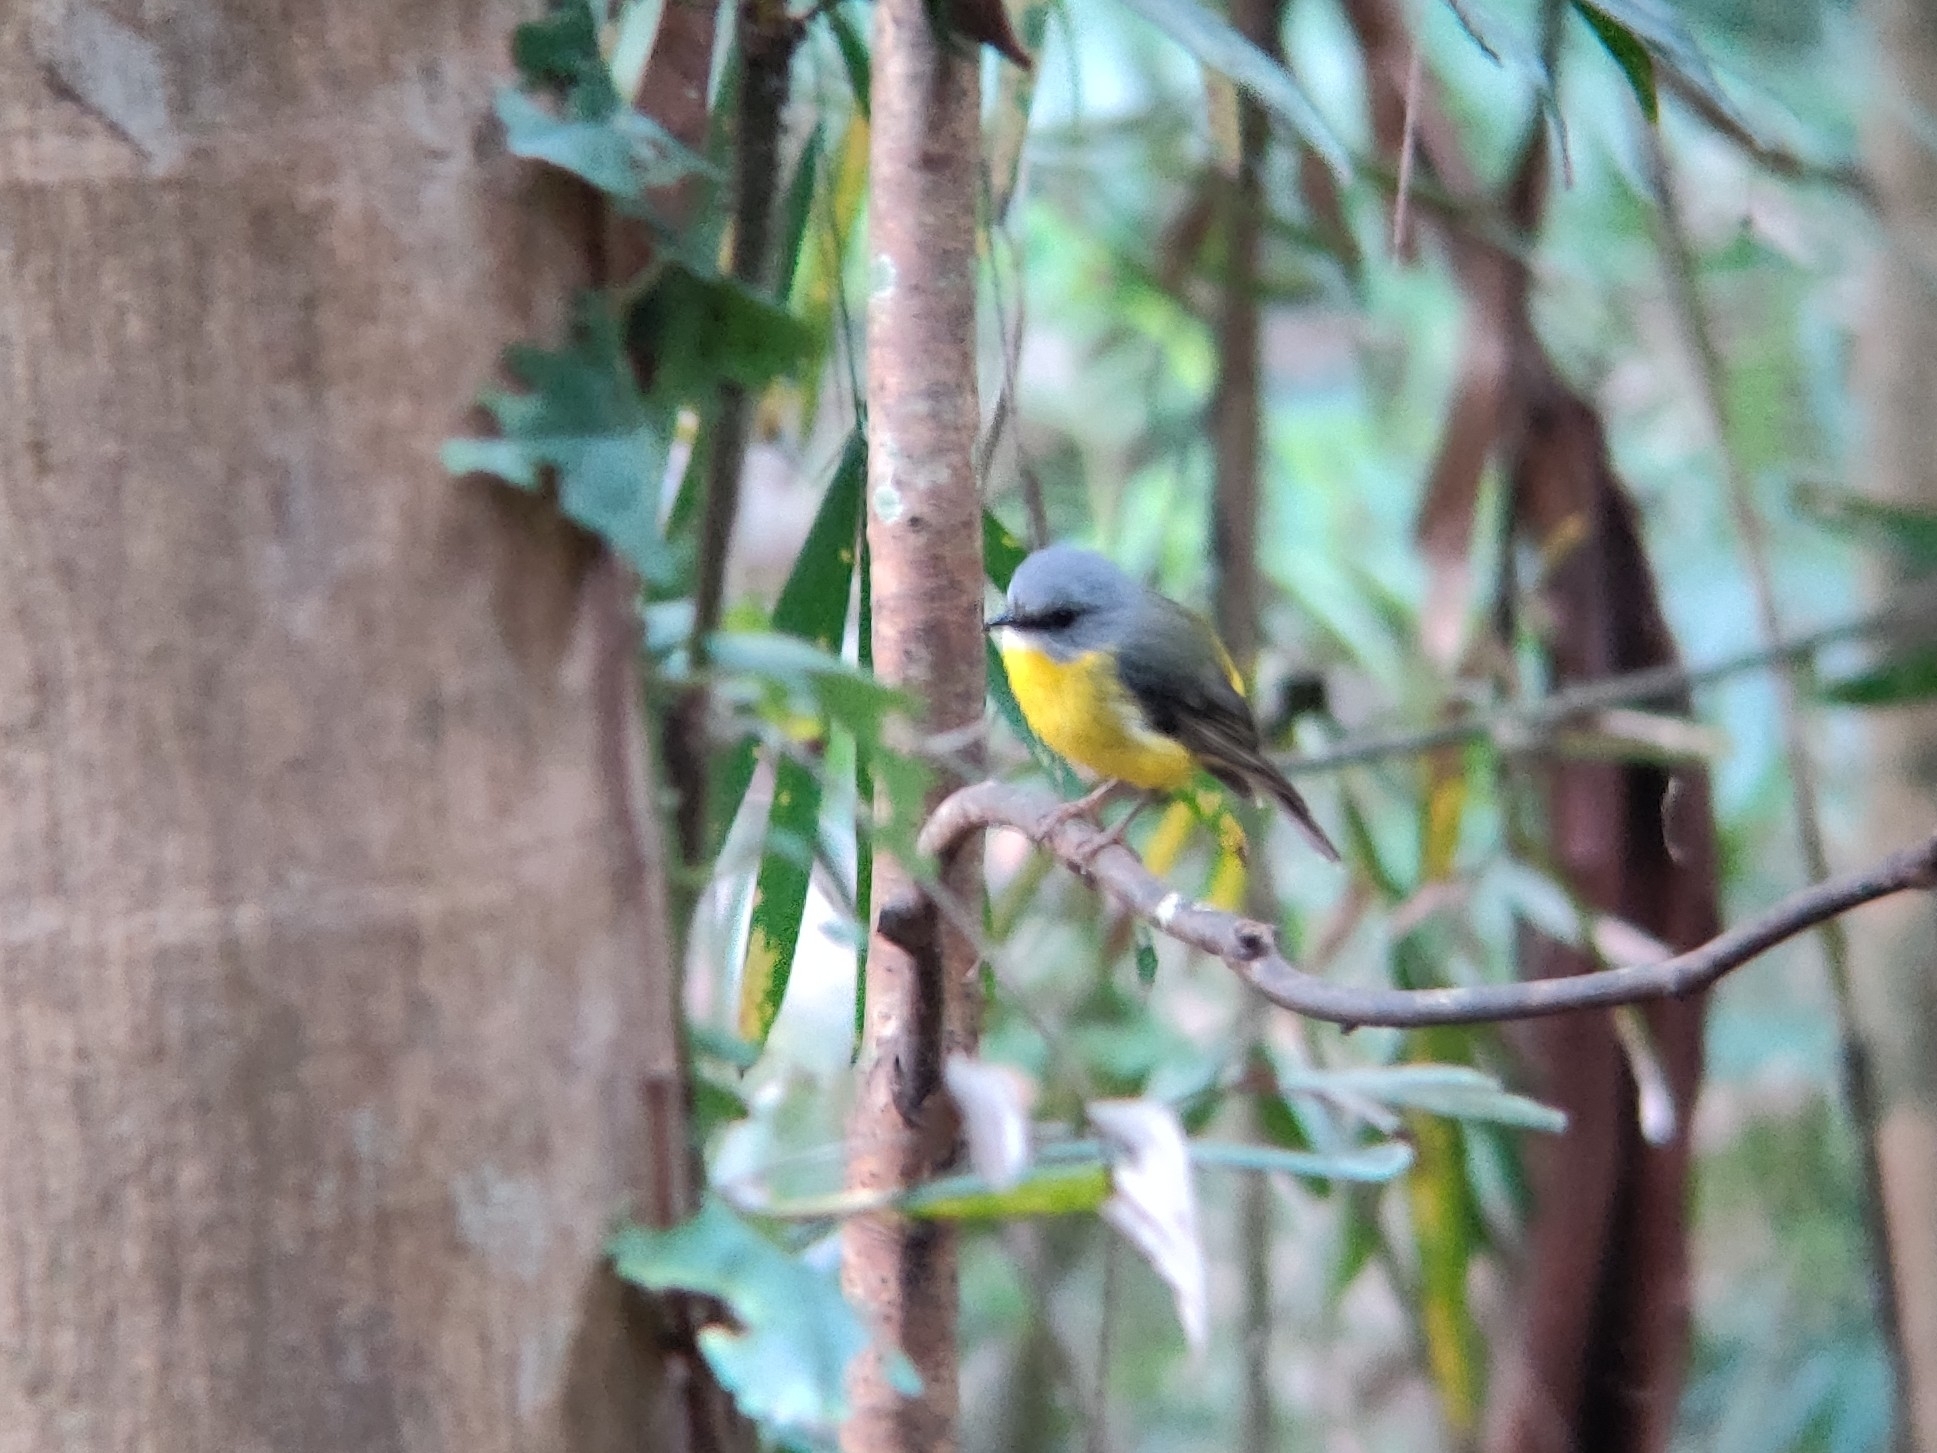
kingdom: Animalia
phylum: Chordata
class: Aves
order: Passeriformes
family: Petroicidae
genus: Eopsaltria
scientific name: Eopsaltria australis
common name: Eastern yellow robin
